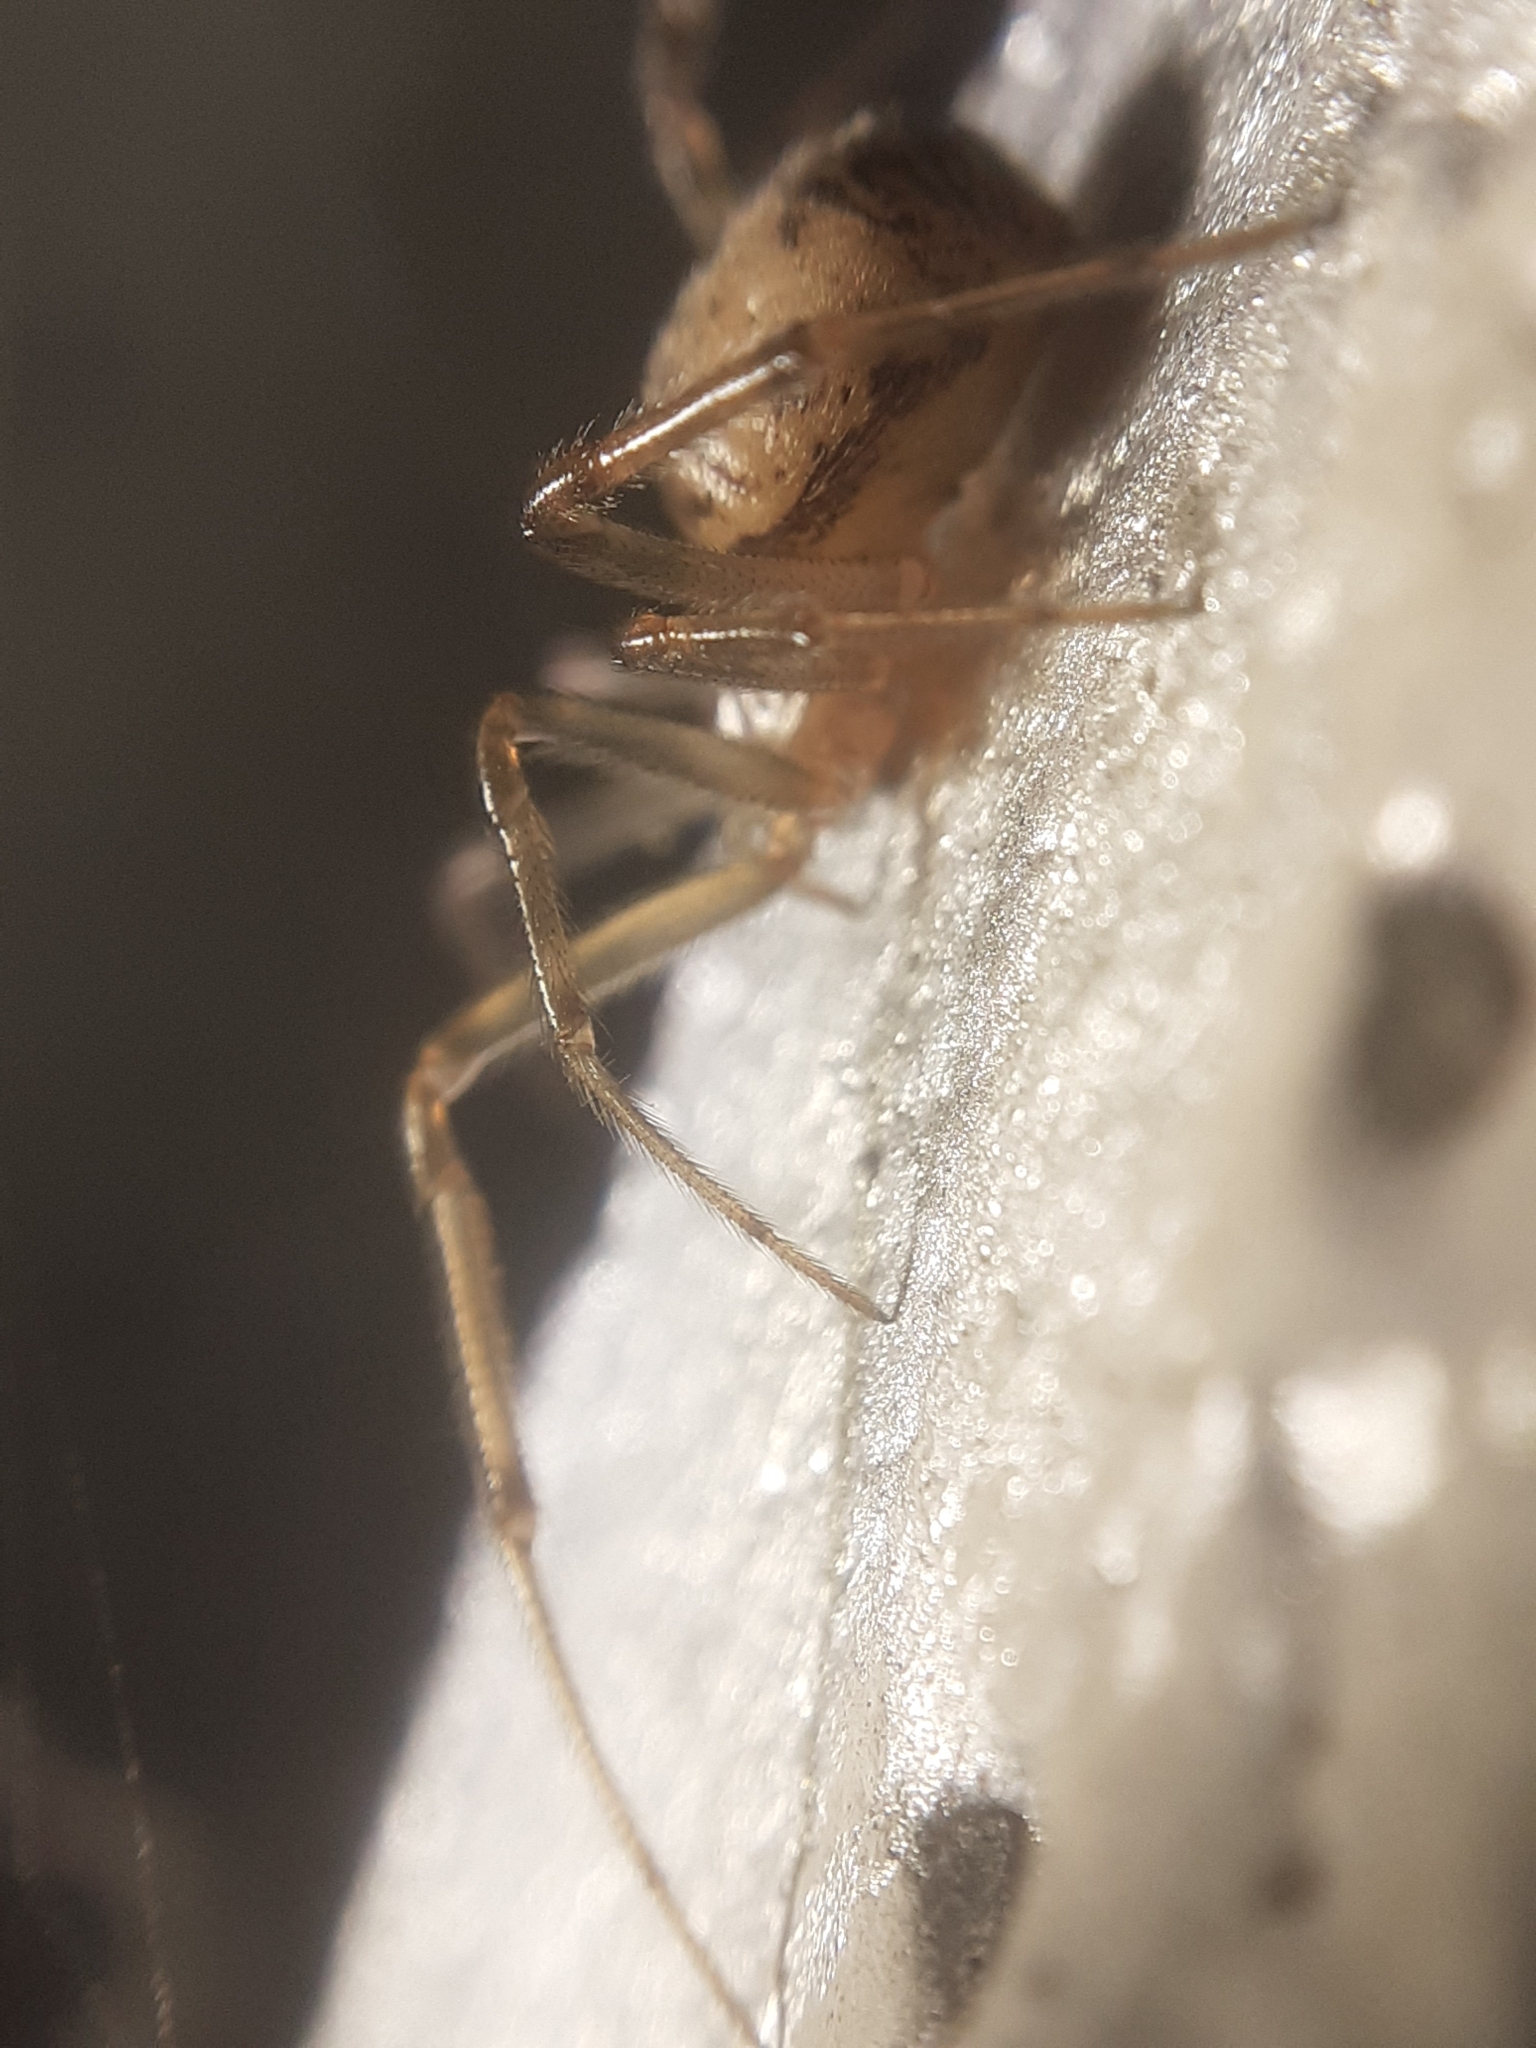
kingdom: Animalia
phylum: Arthropoda
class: Arachnida
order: Araneae
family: Theridiidae
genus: Steatoda
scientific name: Steatoda castanea
